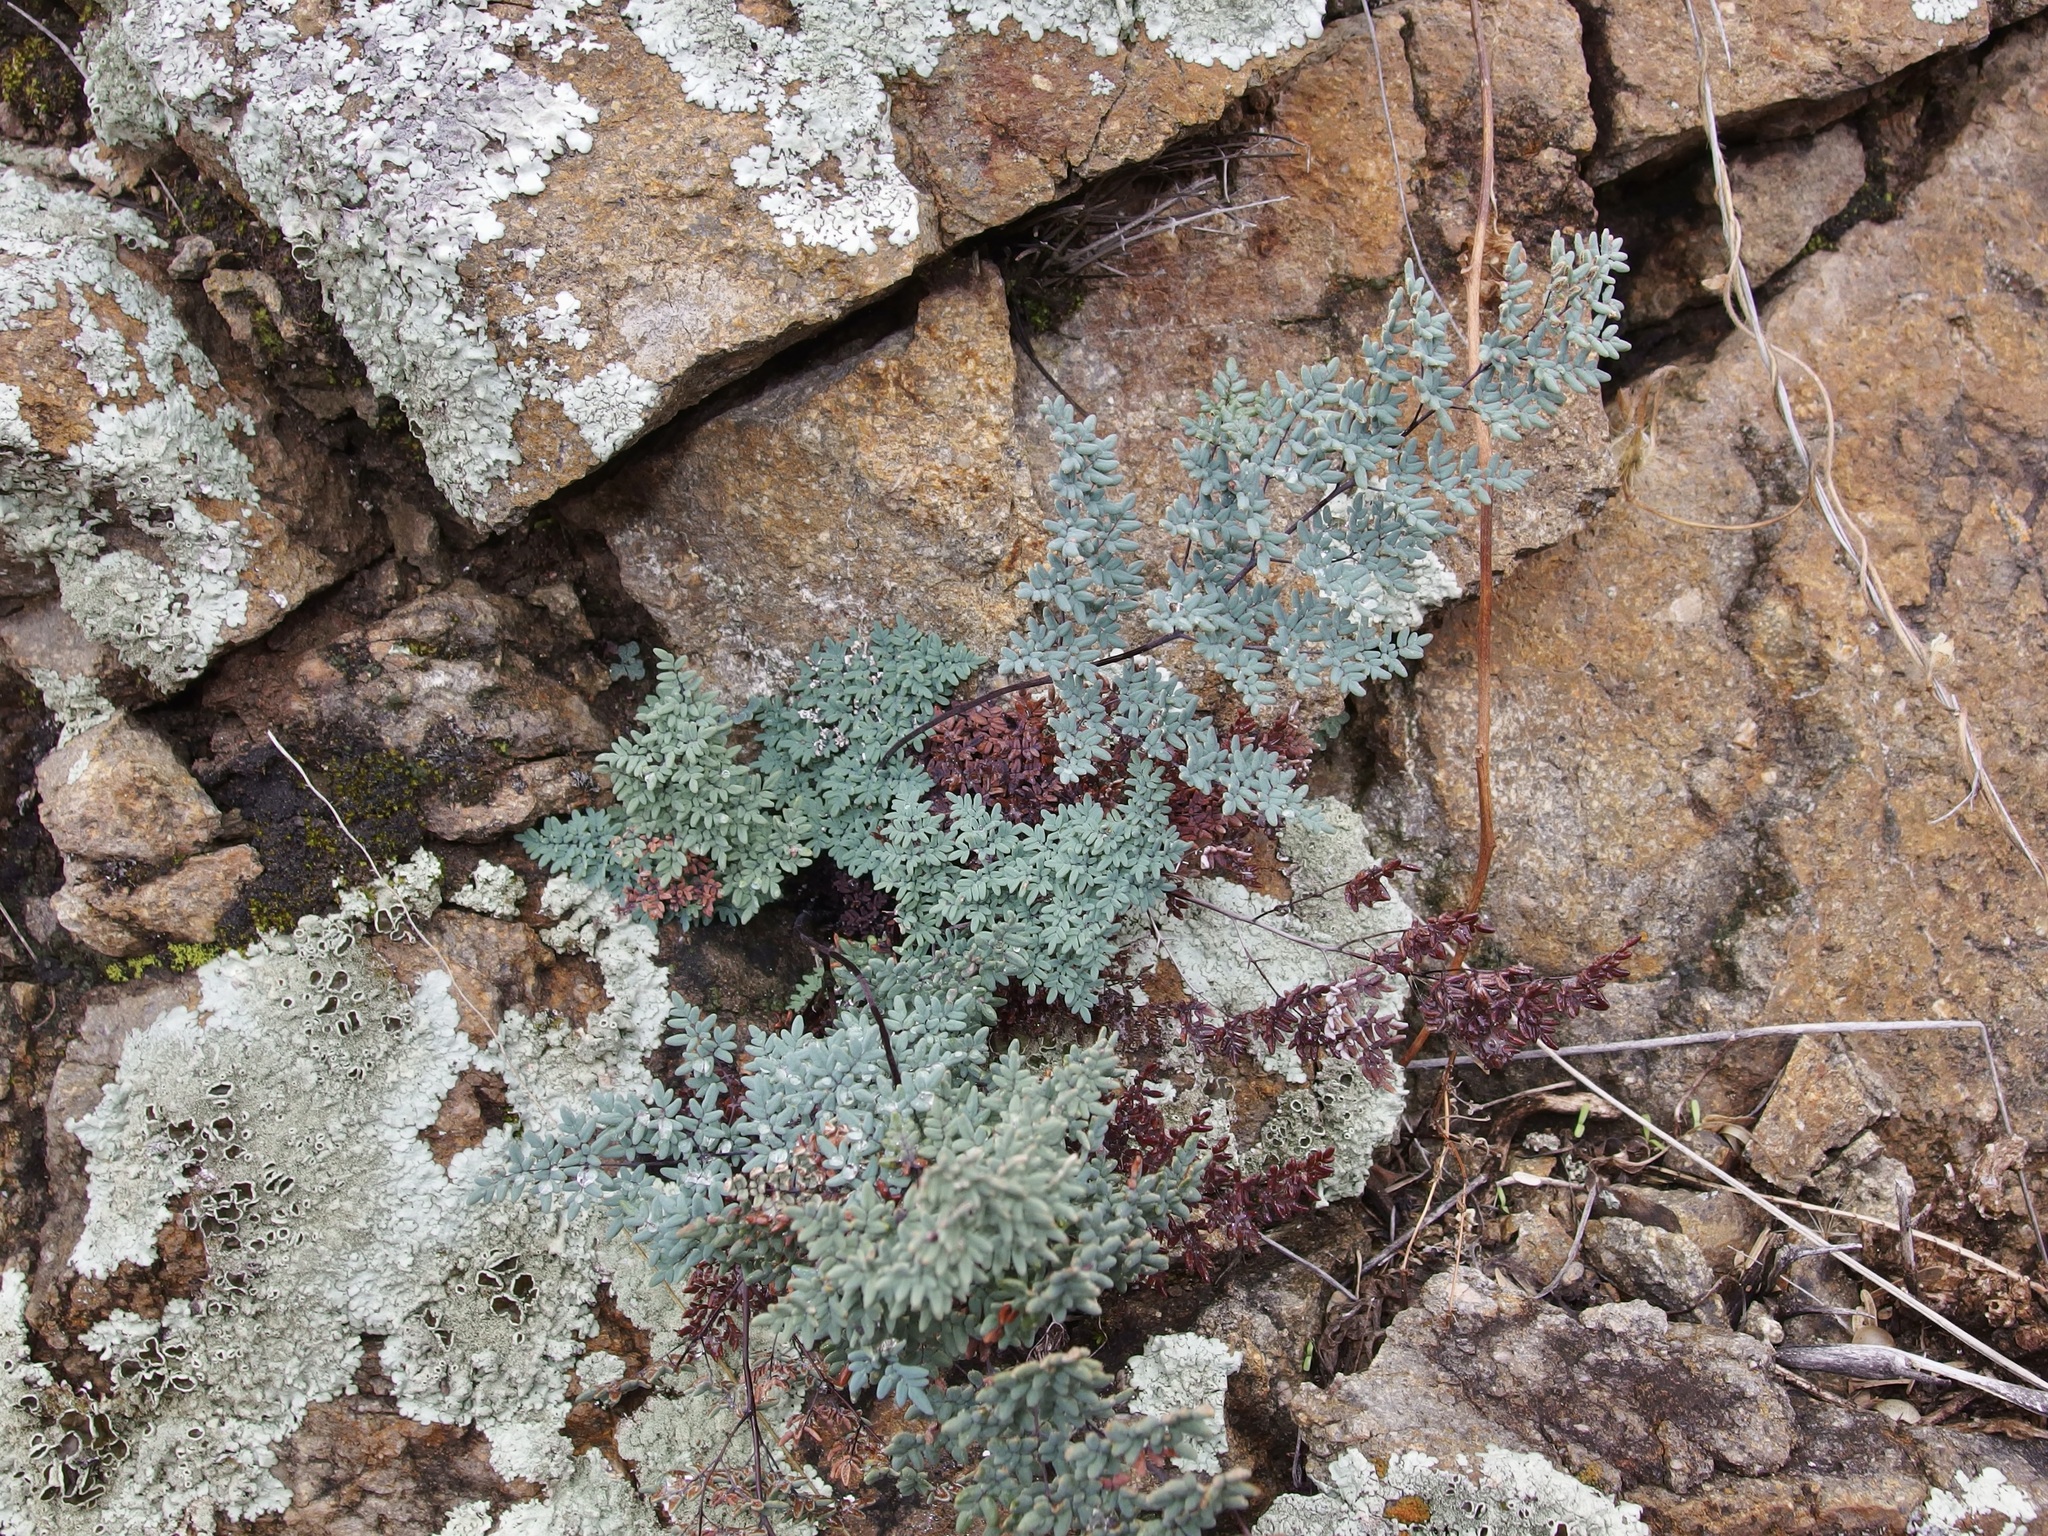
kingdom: Plantae
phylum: Tracheophyta
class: Polypodiopsida
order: Polypodiales
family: Pteridaceae
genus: Argyrochosma
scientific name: Argyrochosma limitanea
